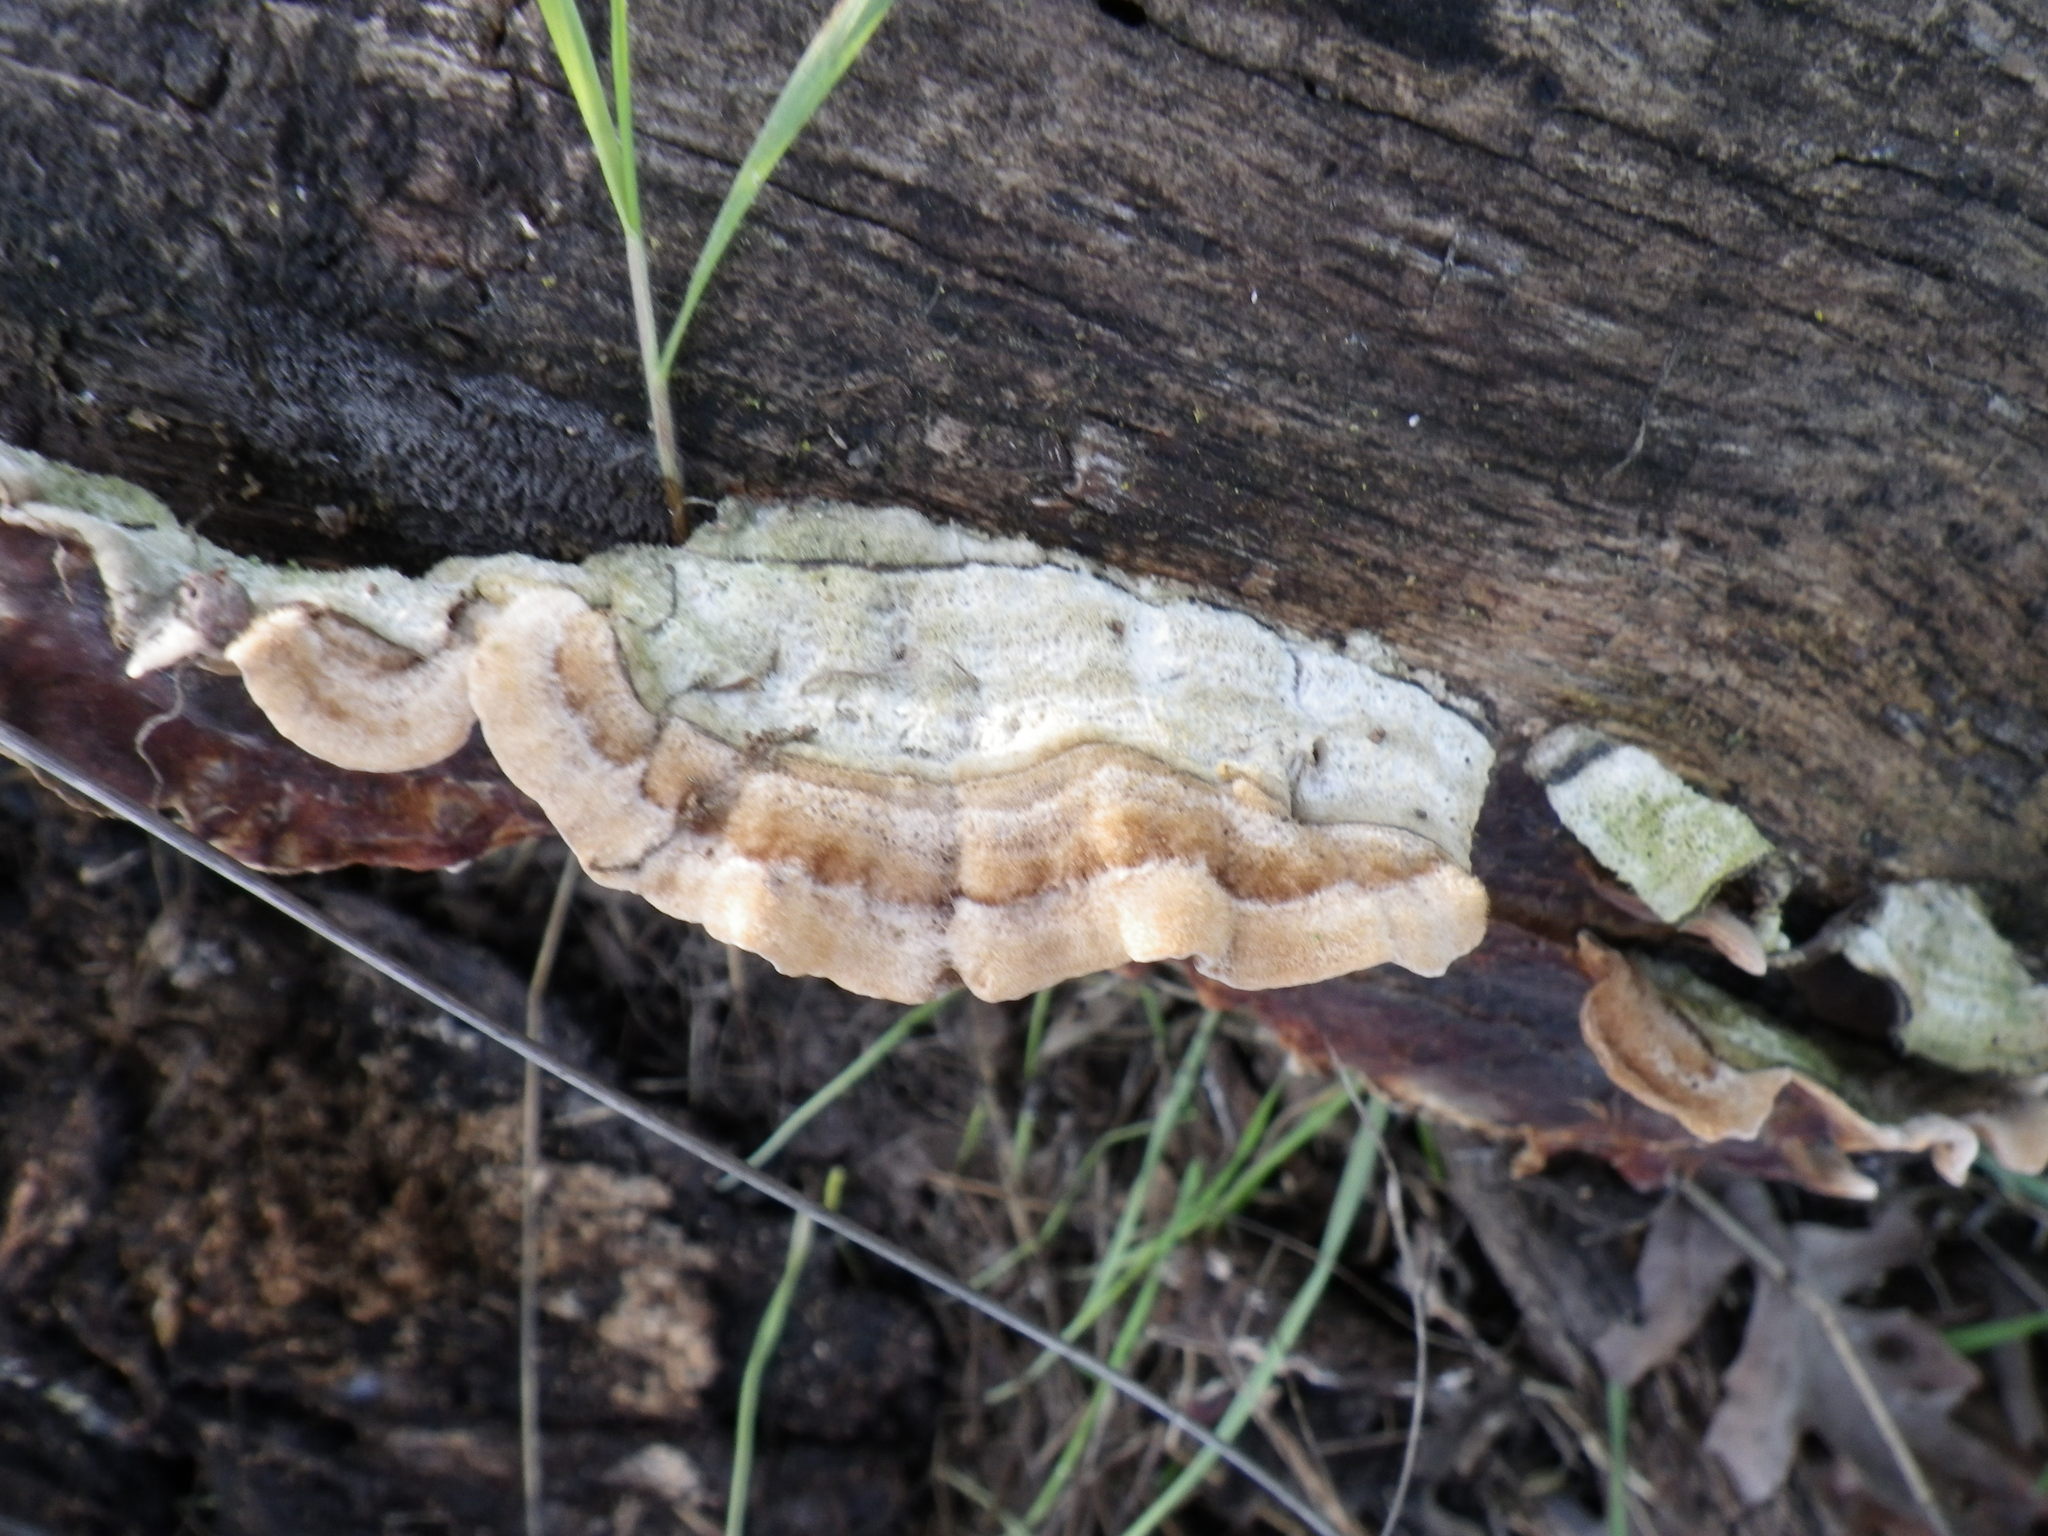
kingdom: Fungi
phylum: Basidiomycota
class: Agaricomycetes
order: Russulales
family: Stereaceae
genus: Stereum
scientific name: Stereum hirsutum
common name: Hairy curtain crust
